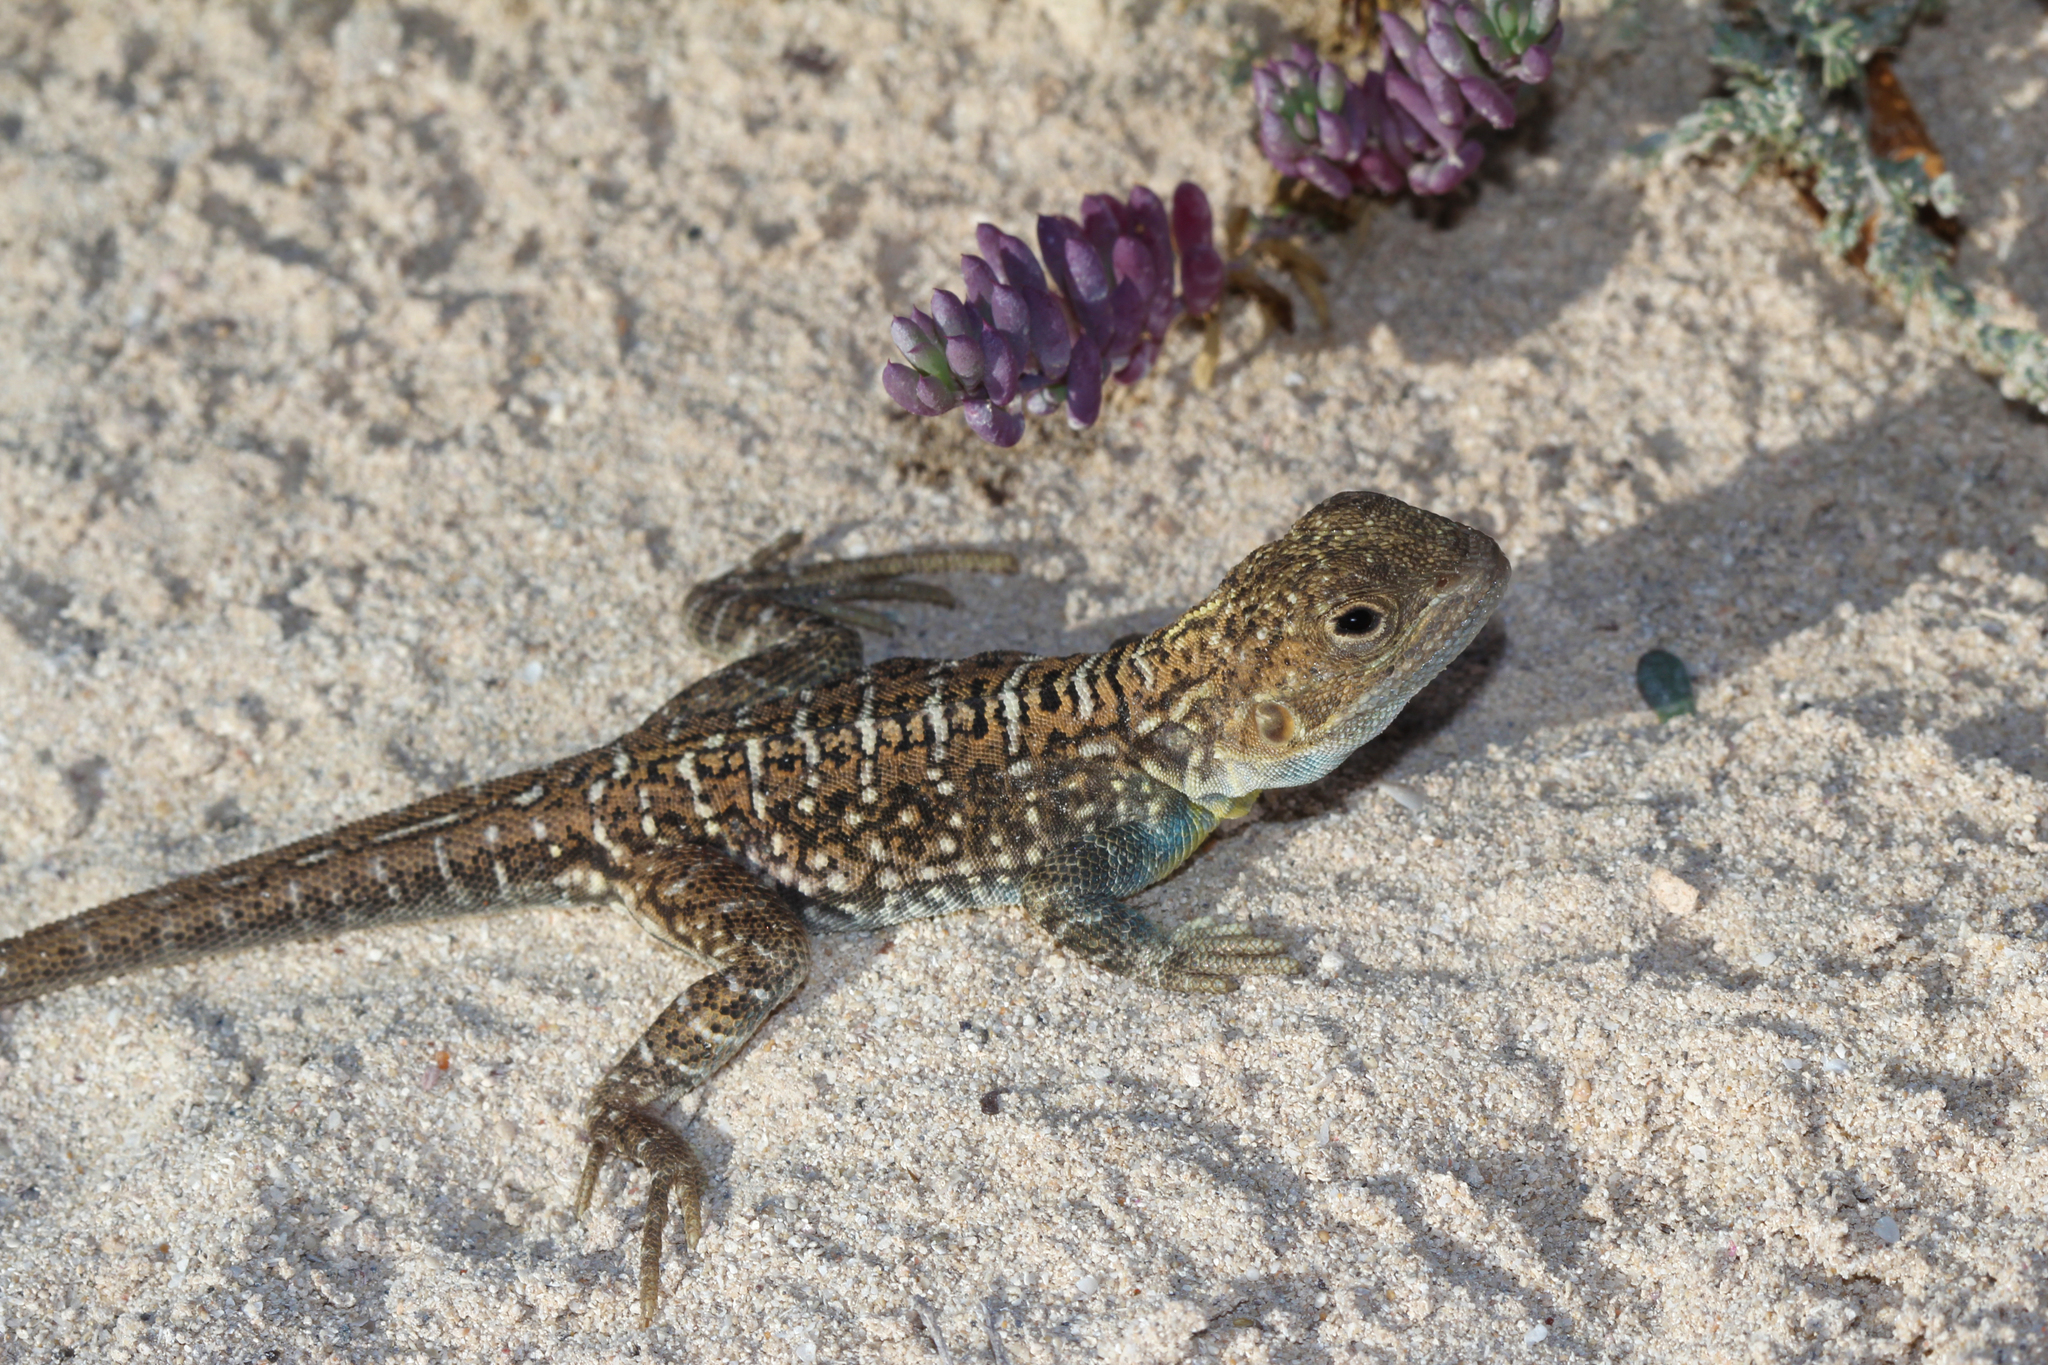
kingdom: Animalia
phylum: Chordata
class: Squamata
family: Agamidae
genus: Ctenophorus
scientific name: Ctenophorus pictus
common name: Painted dragon
